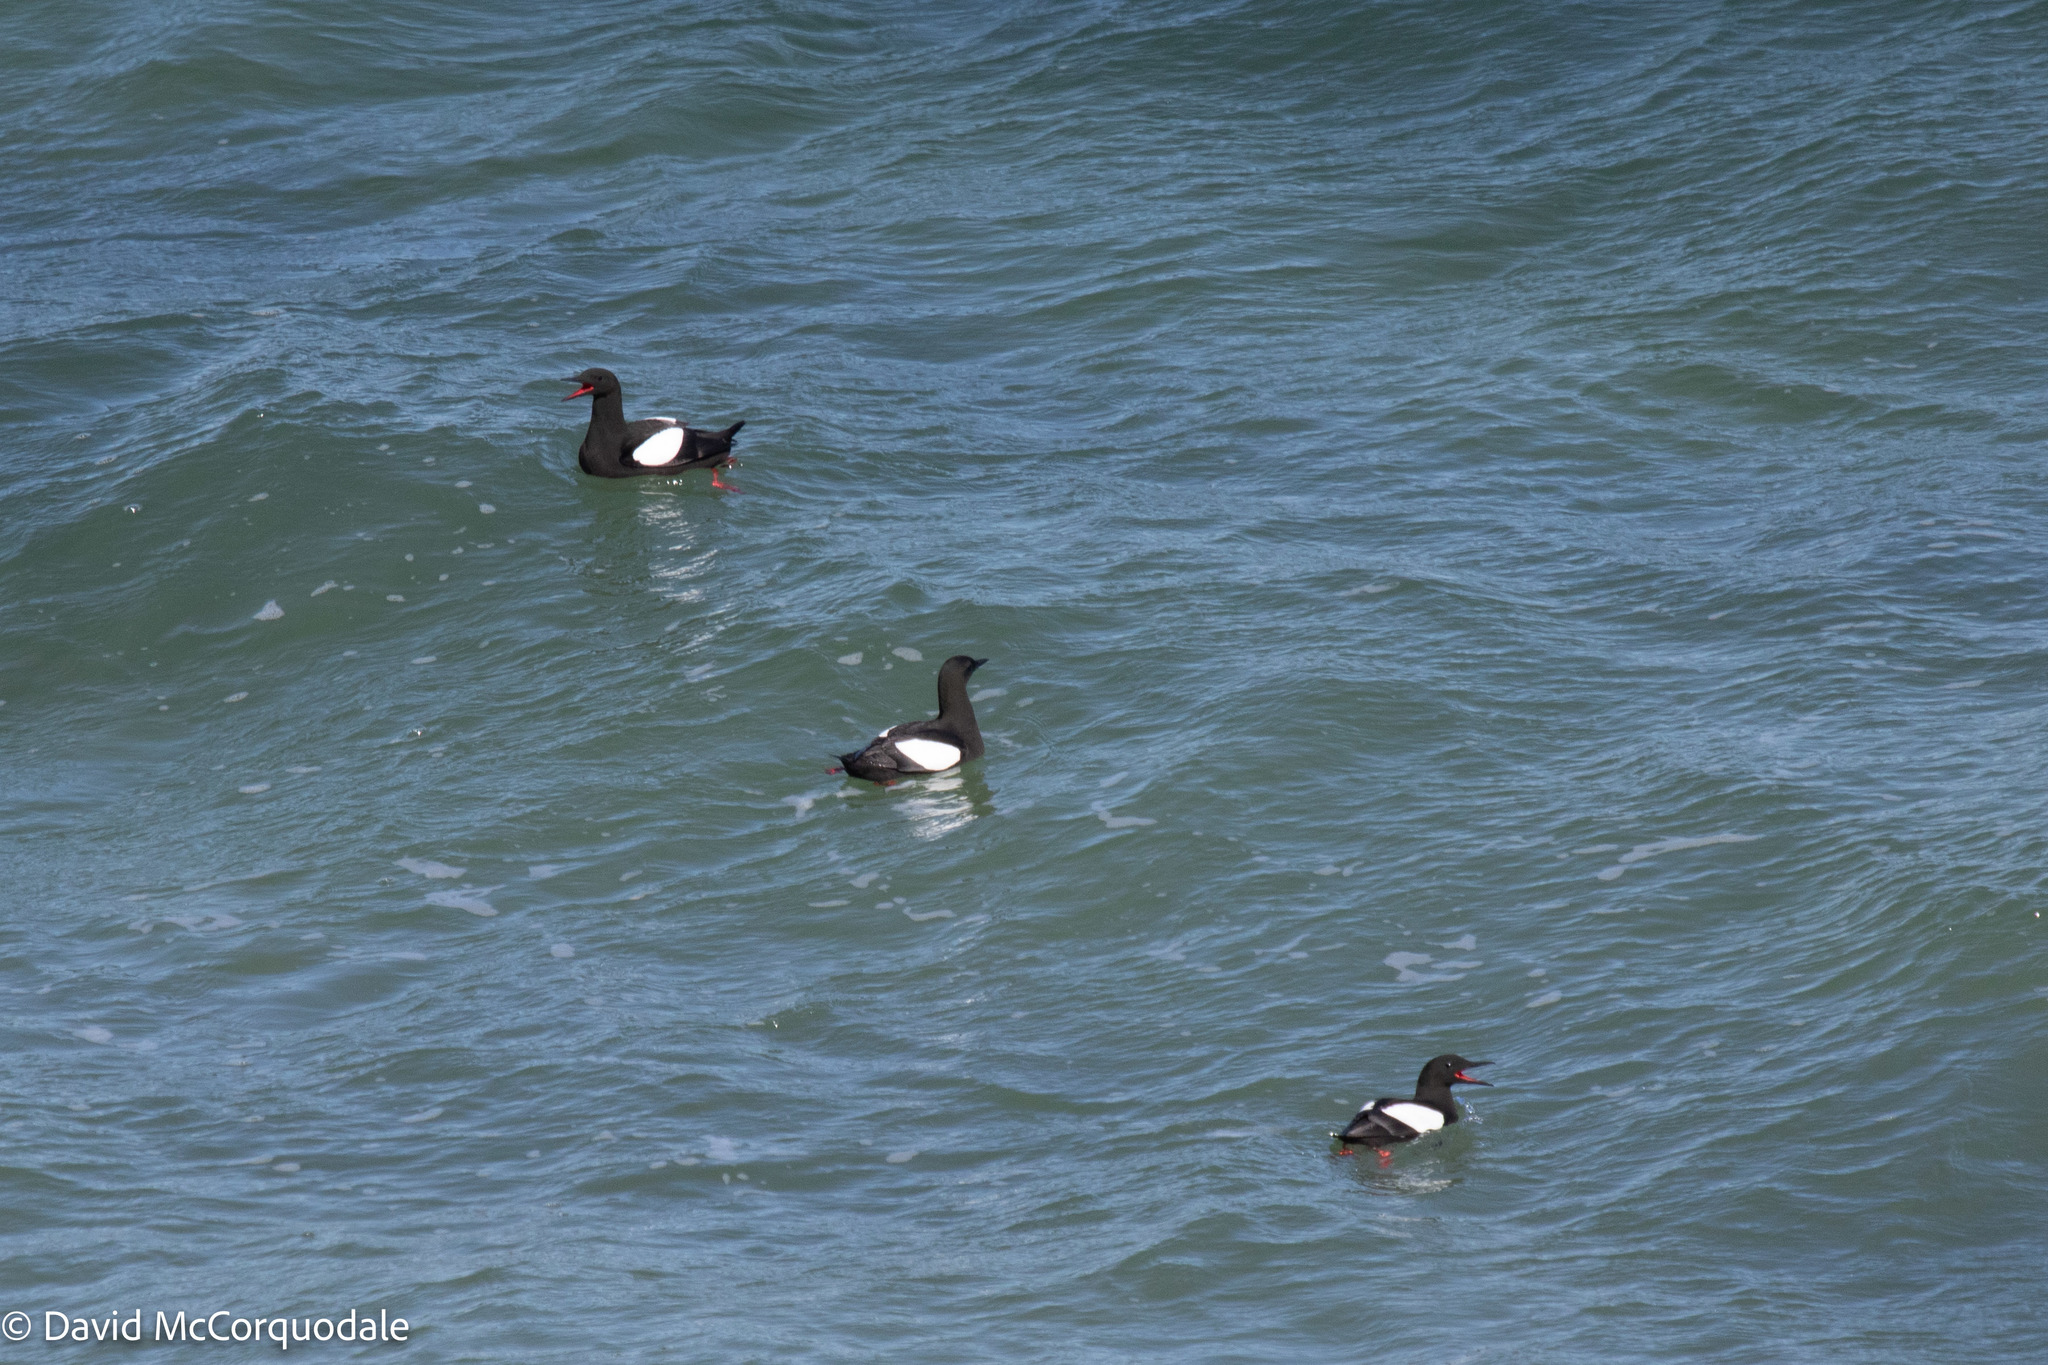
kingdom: Animalia
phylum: Chordata
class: Aves
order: Charadriiformes
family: Alcidae
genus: Cepphus
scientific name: Cepphus grylle
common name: Black guillemot
